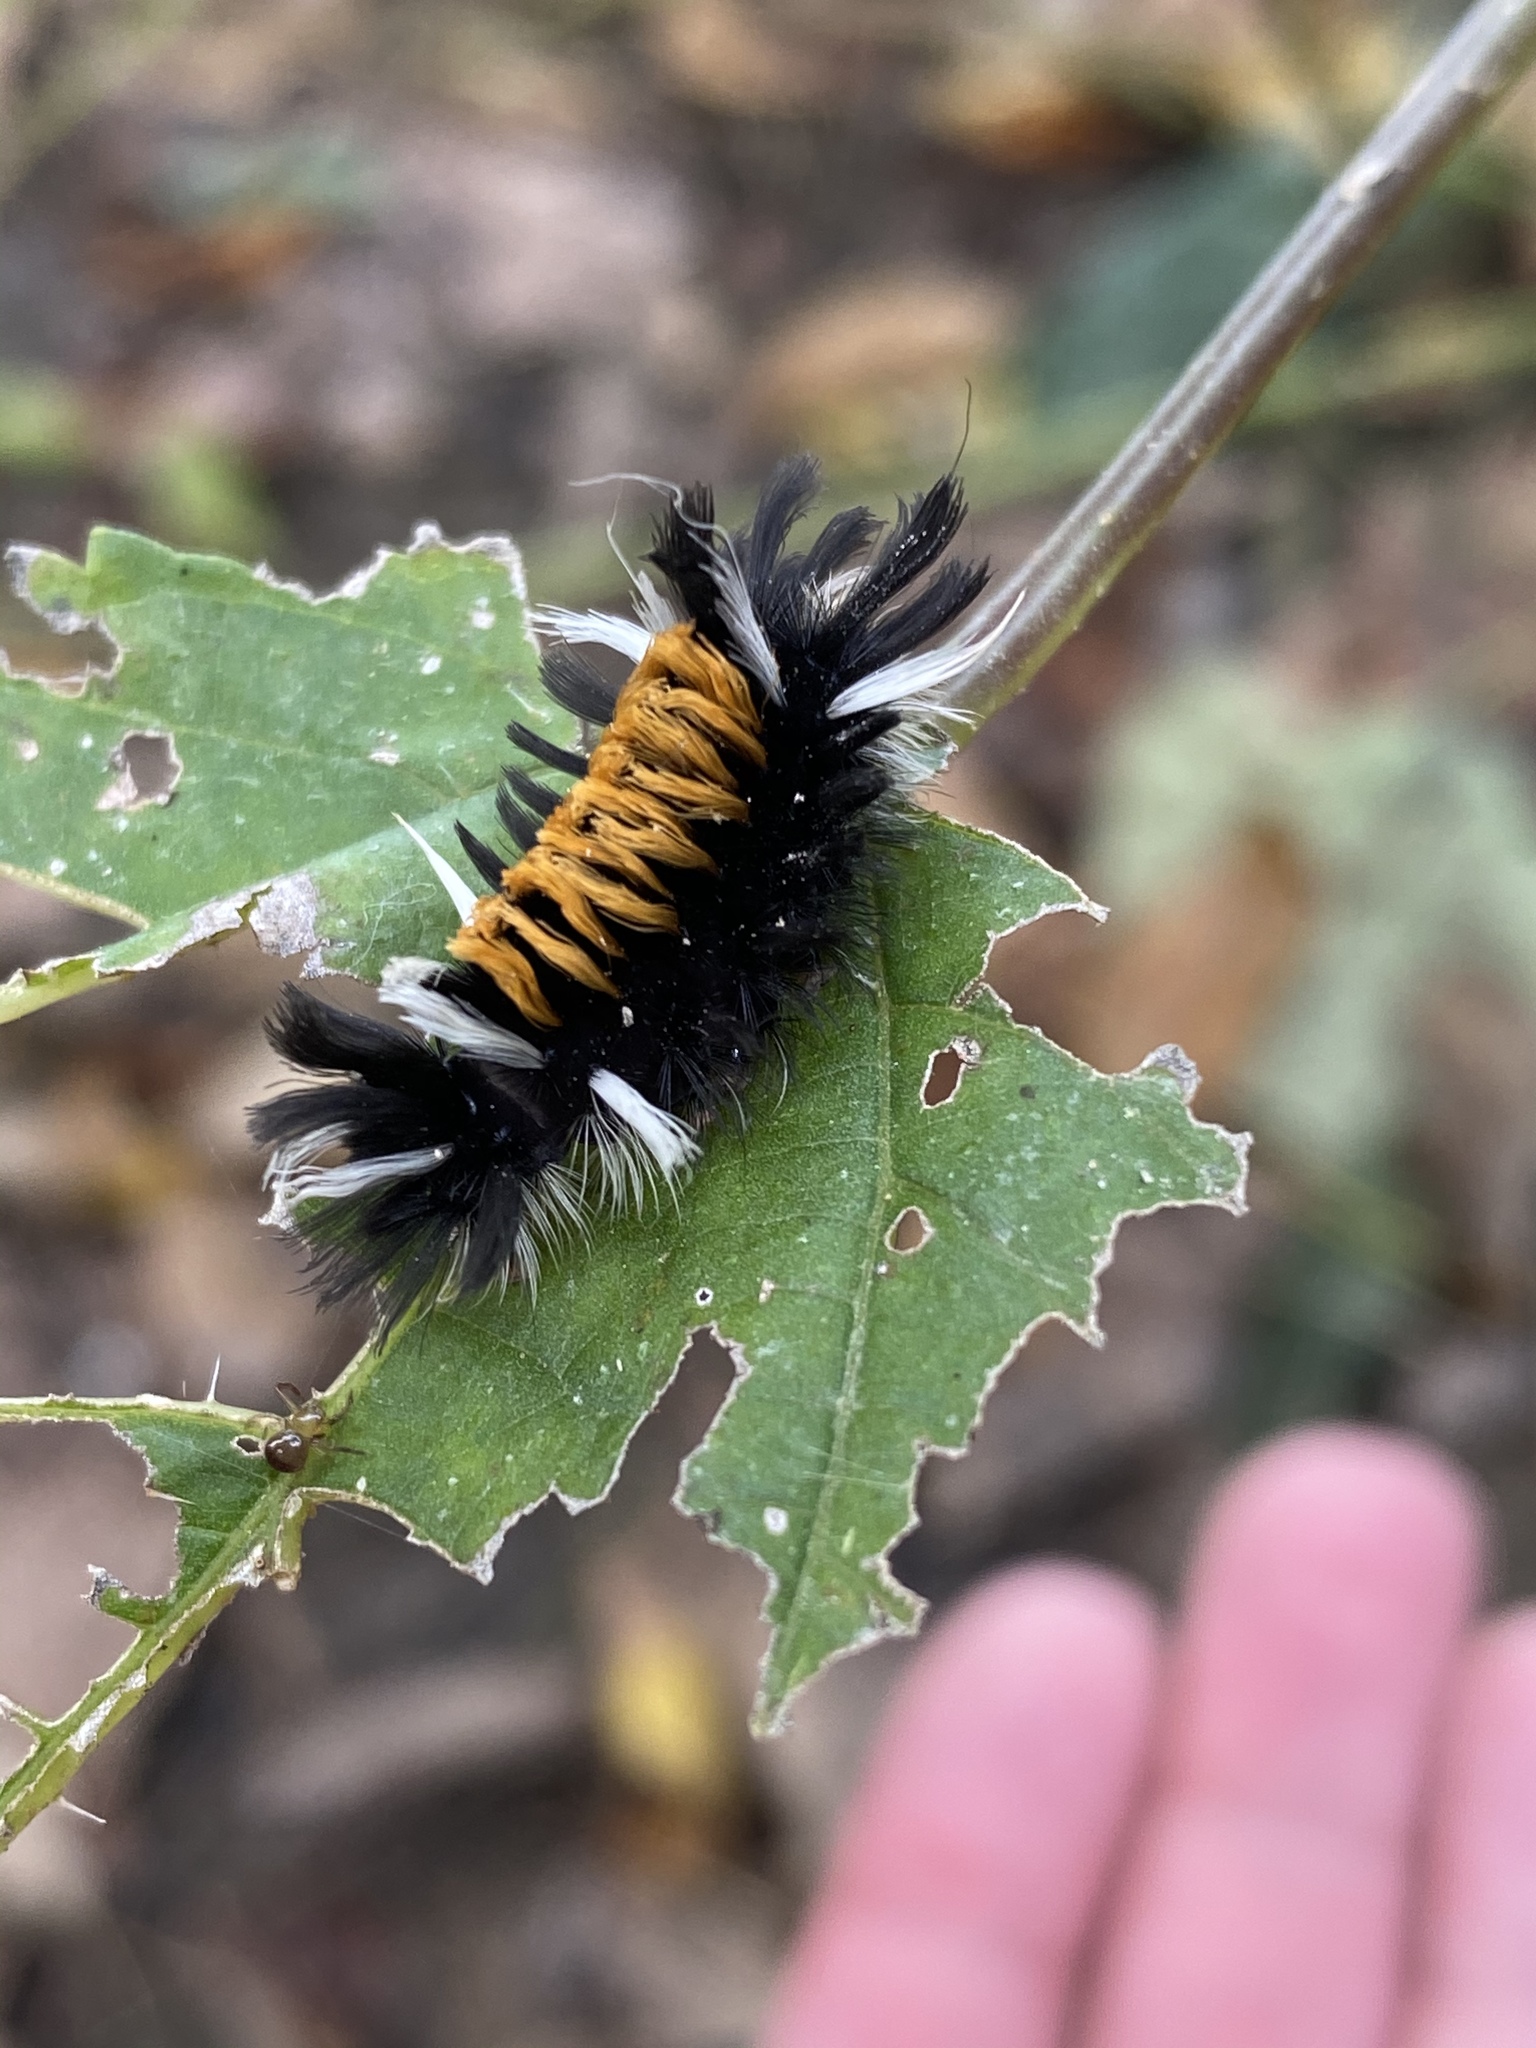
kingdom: Animalia
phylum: Arthropoda
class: Insecta
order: Lepidoptera
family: Erebidae
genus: Euchaetes
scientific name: Euchaetes egle
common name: Milkweed tussock moth
